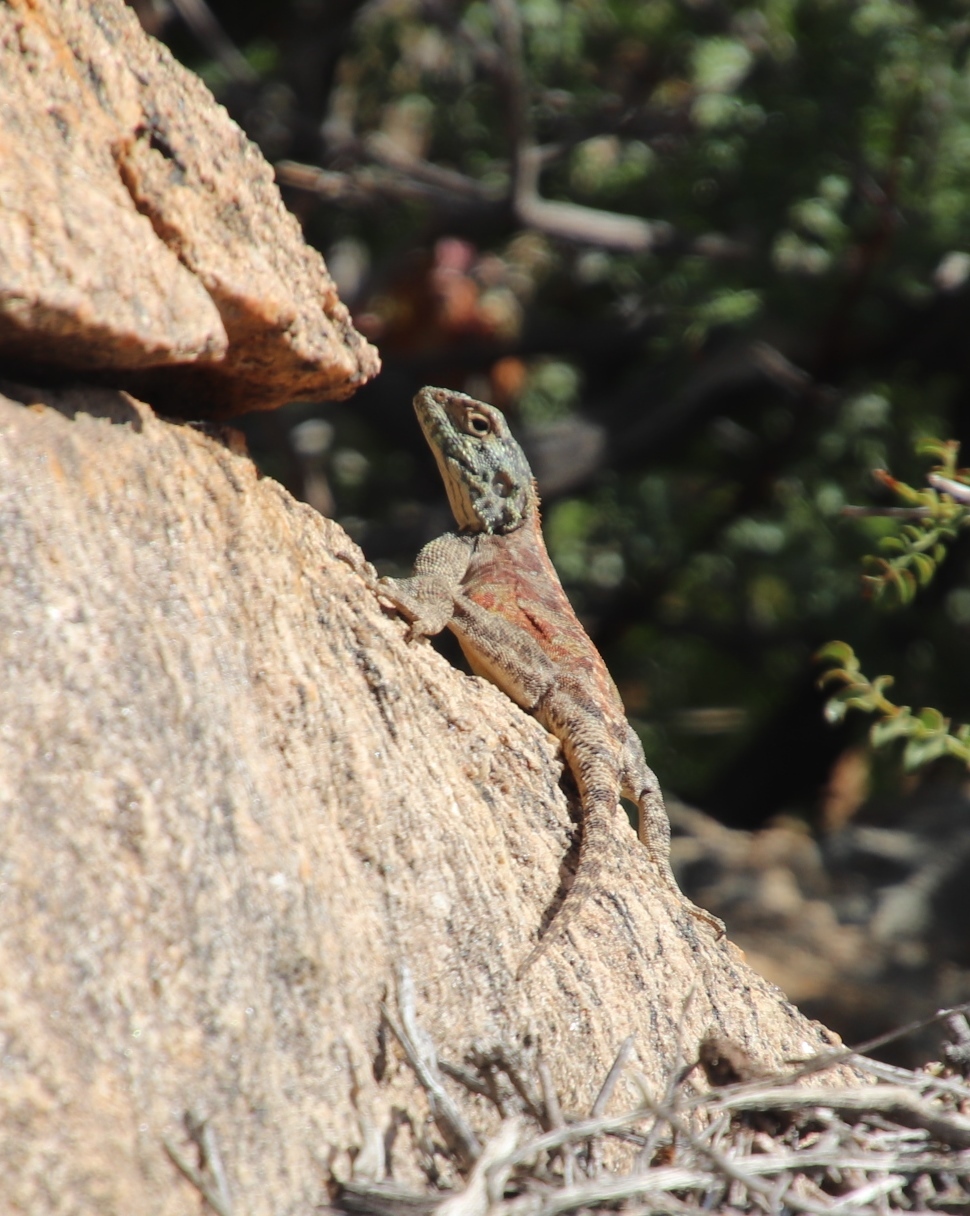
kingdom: Animalia
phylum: Chordata
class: Squamata
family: Agamidae
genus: Agama
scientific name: Agama atra
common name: Southern african rock agama
